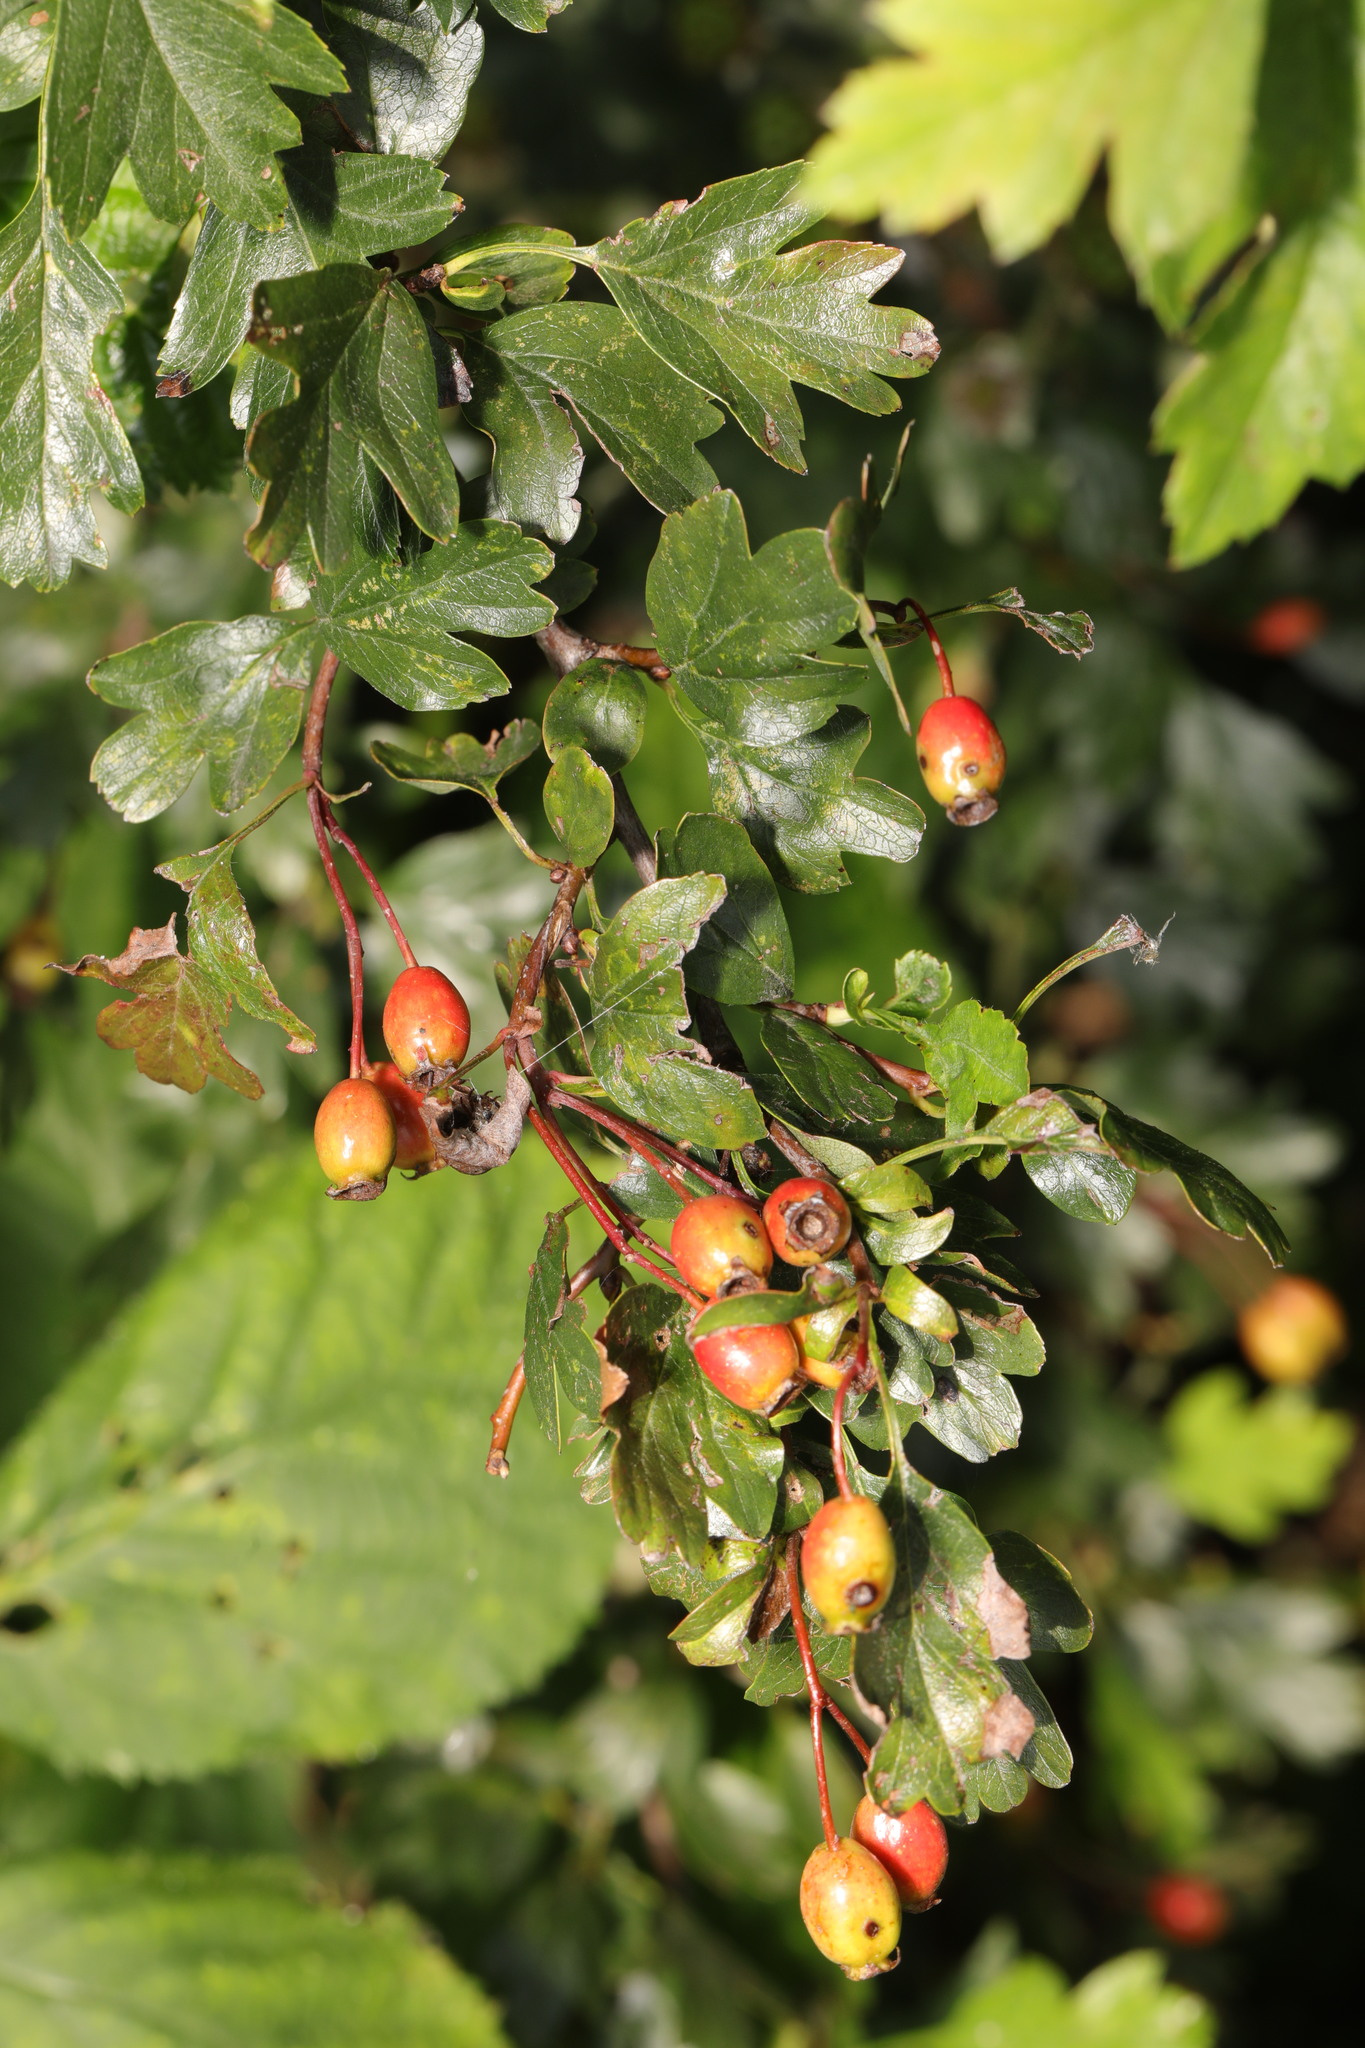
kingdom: Plantae
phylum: Tracheophyta
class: Magnoliopsida
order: Rosales
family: Rosaceae
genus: Crataegus
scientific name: Crataegus monogyna
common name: Hawthorn
